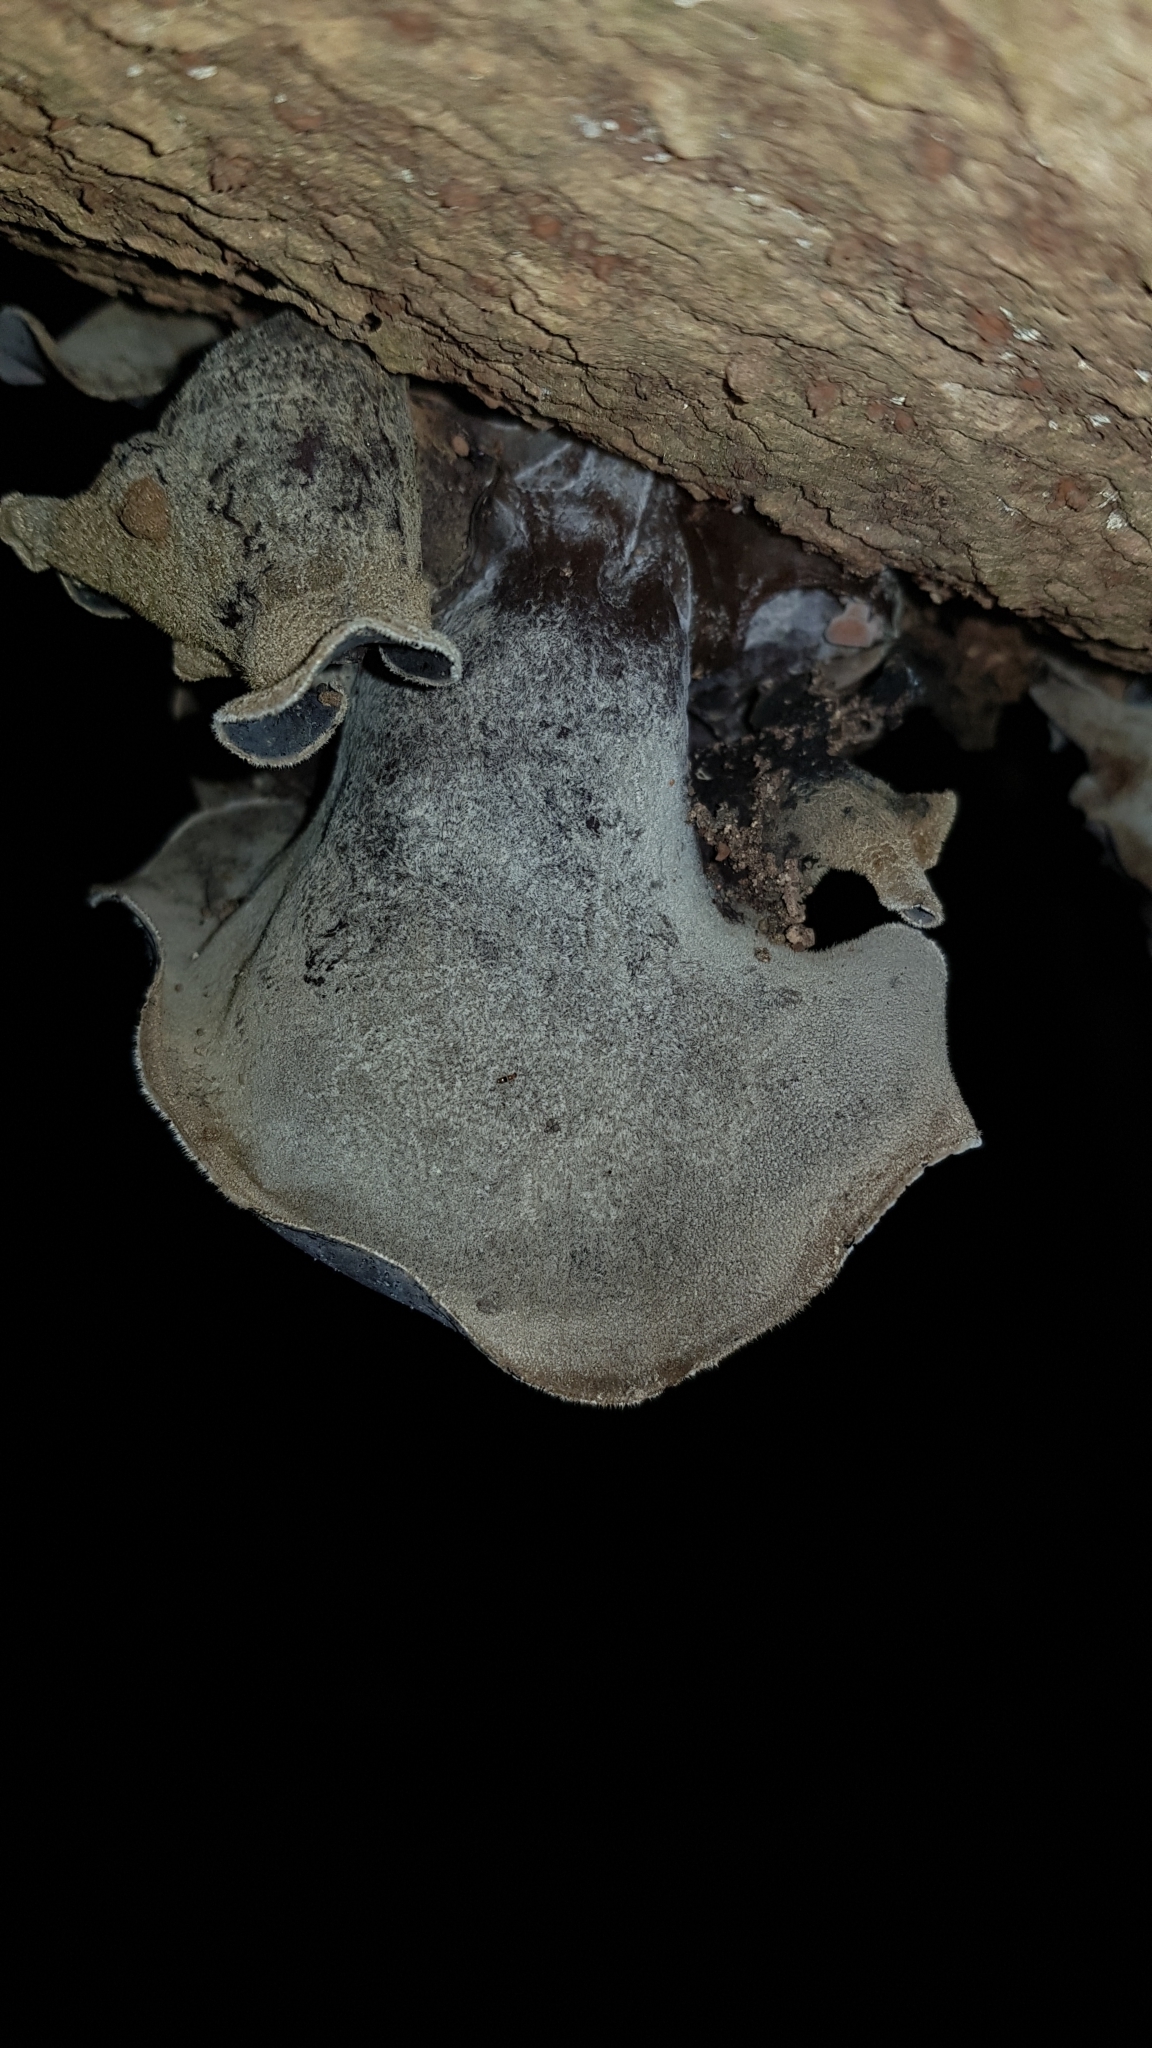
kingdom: Fungi
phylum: Basidiomycota
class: Agaricomycetes
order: Auriculariales
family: Auriculariaceae
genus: Auricularia
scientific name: Auricularia cornea
